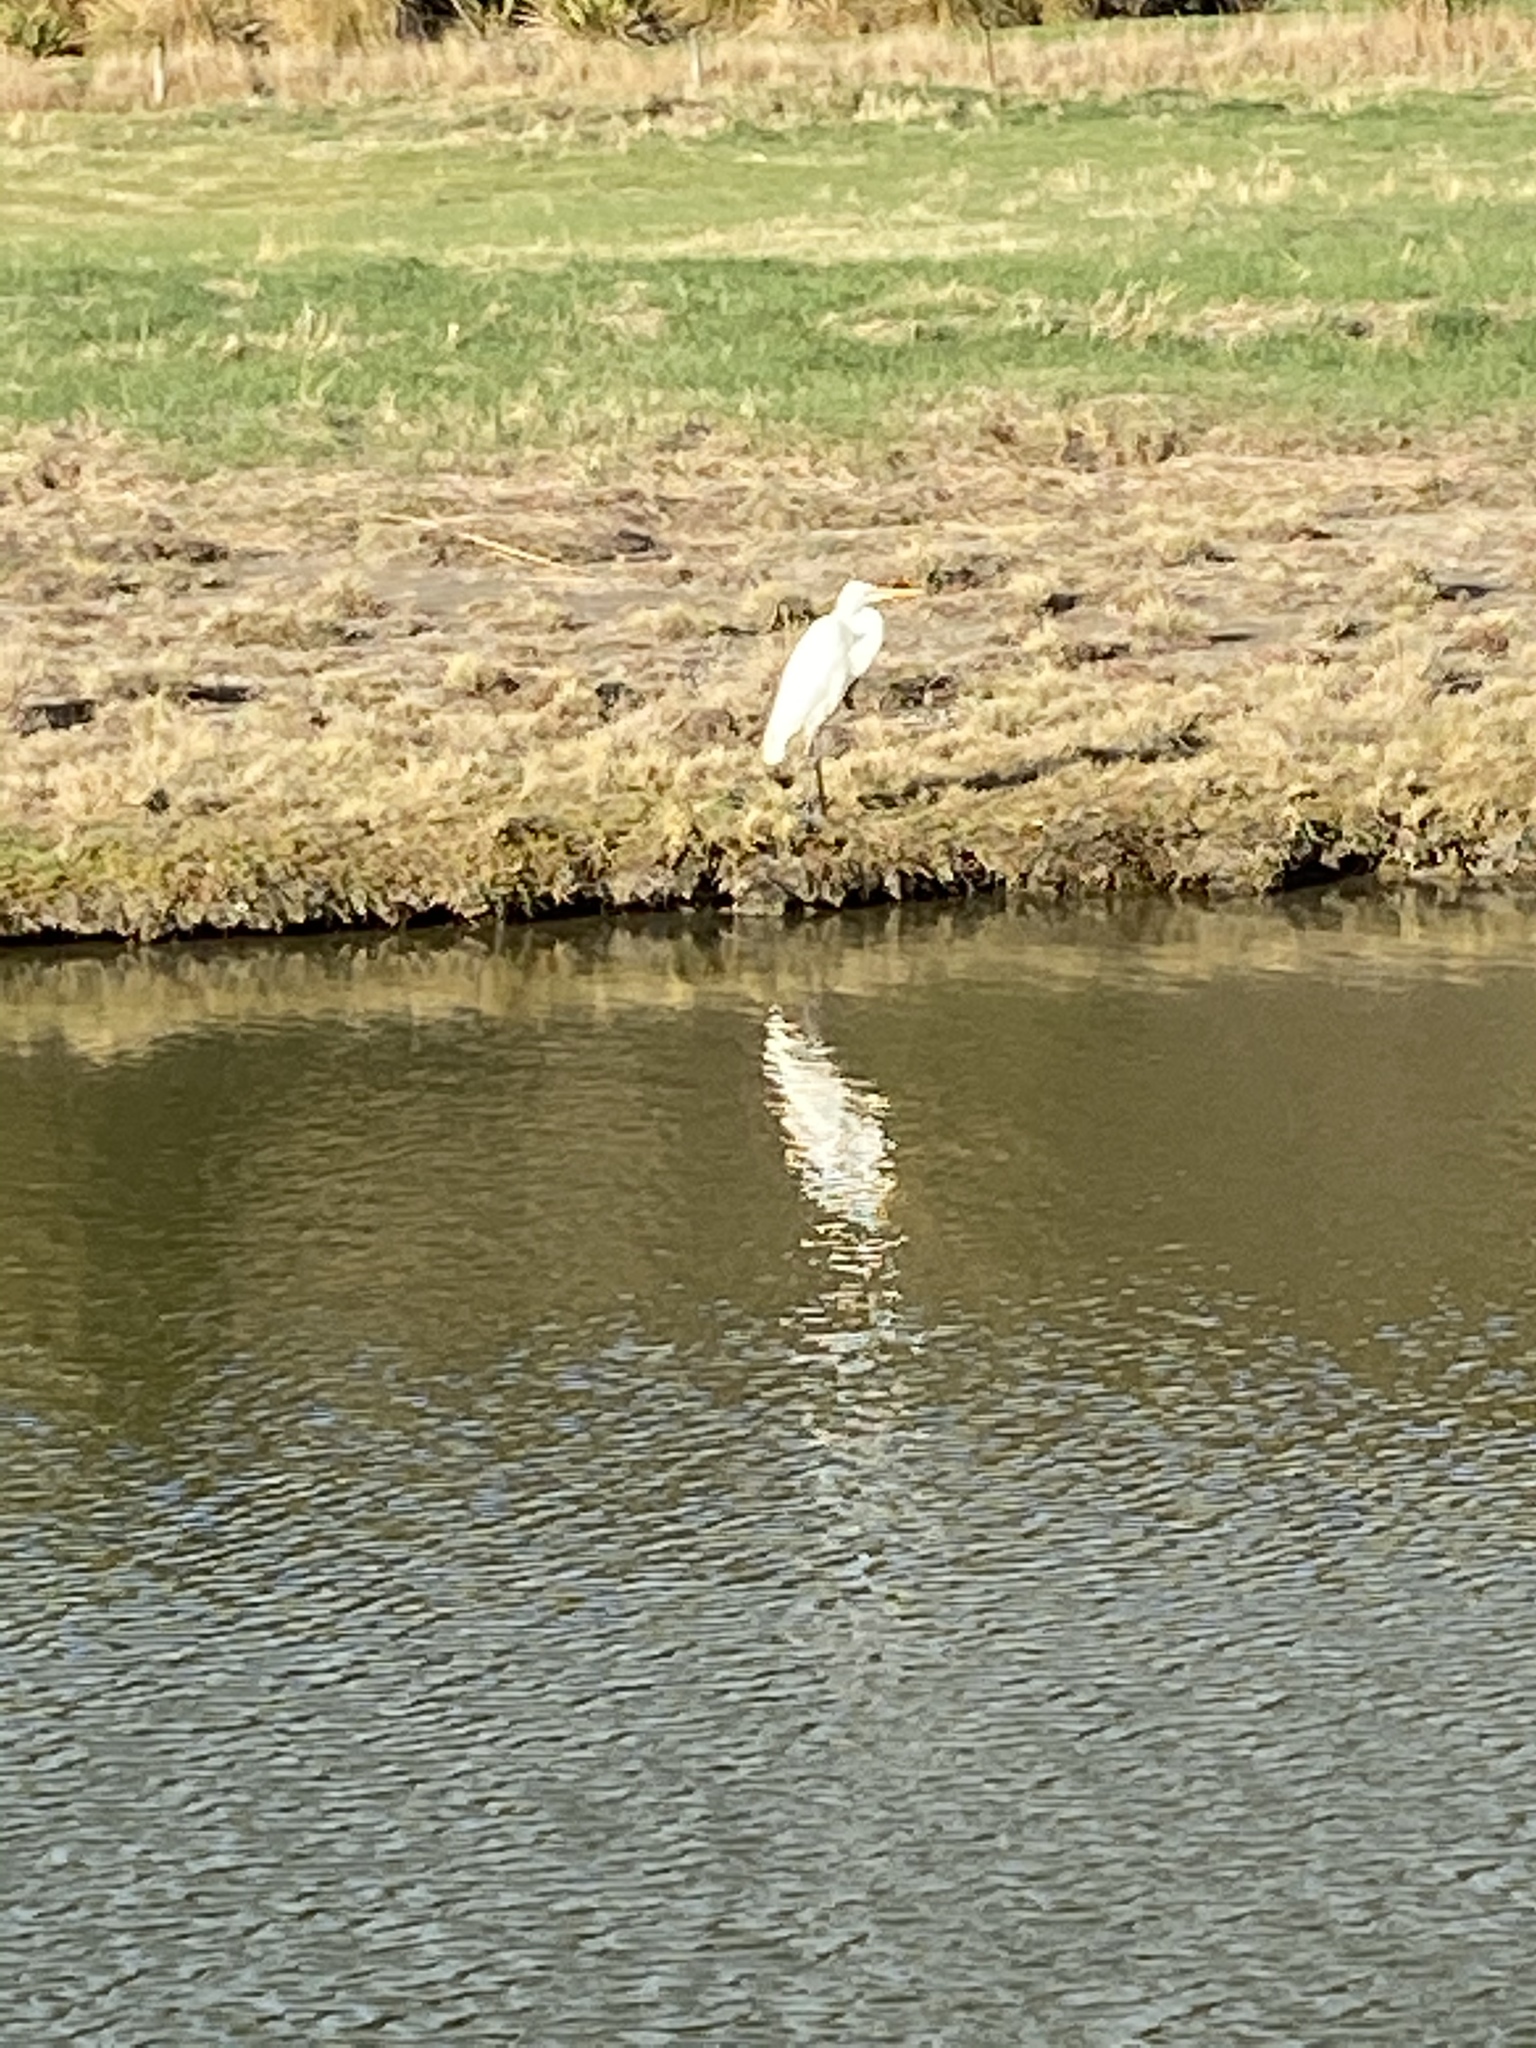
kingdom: Animalia
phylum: Chordata
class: Aves
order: Pelecaniformes
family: Ardeidae
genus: Ardea
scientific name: Ardea modesta
